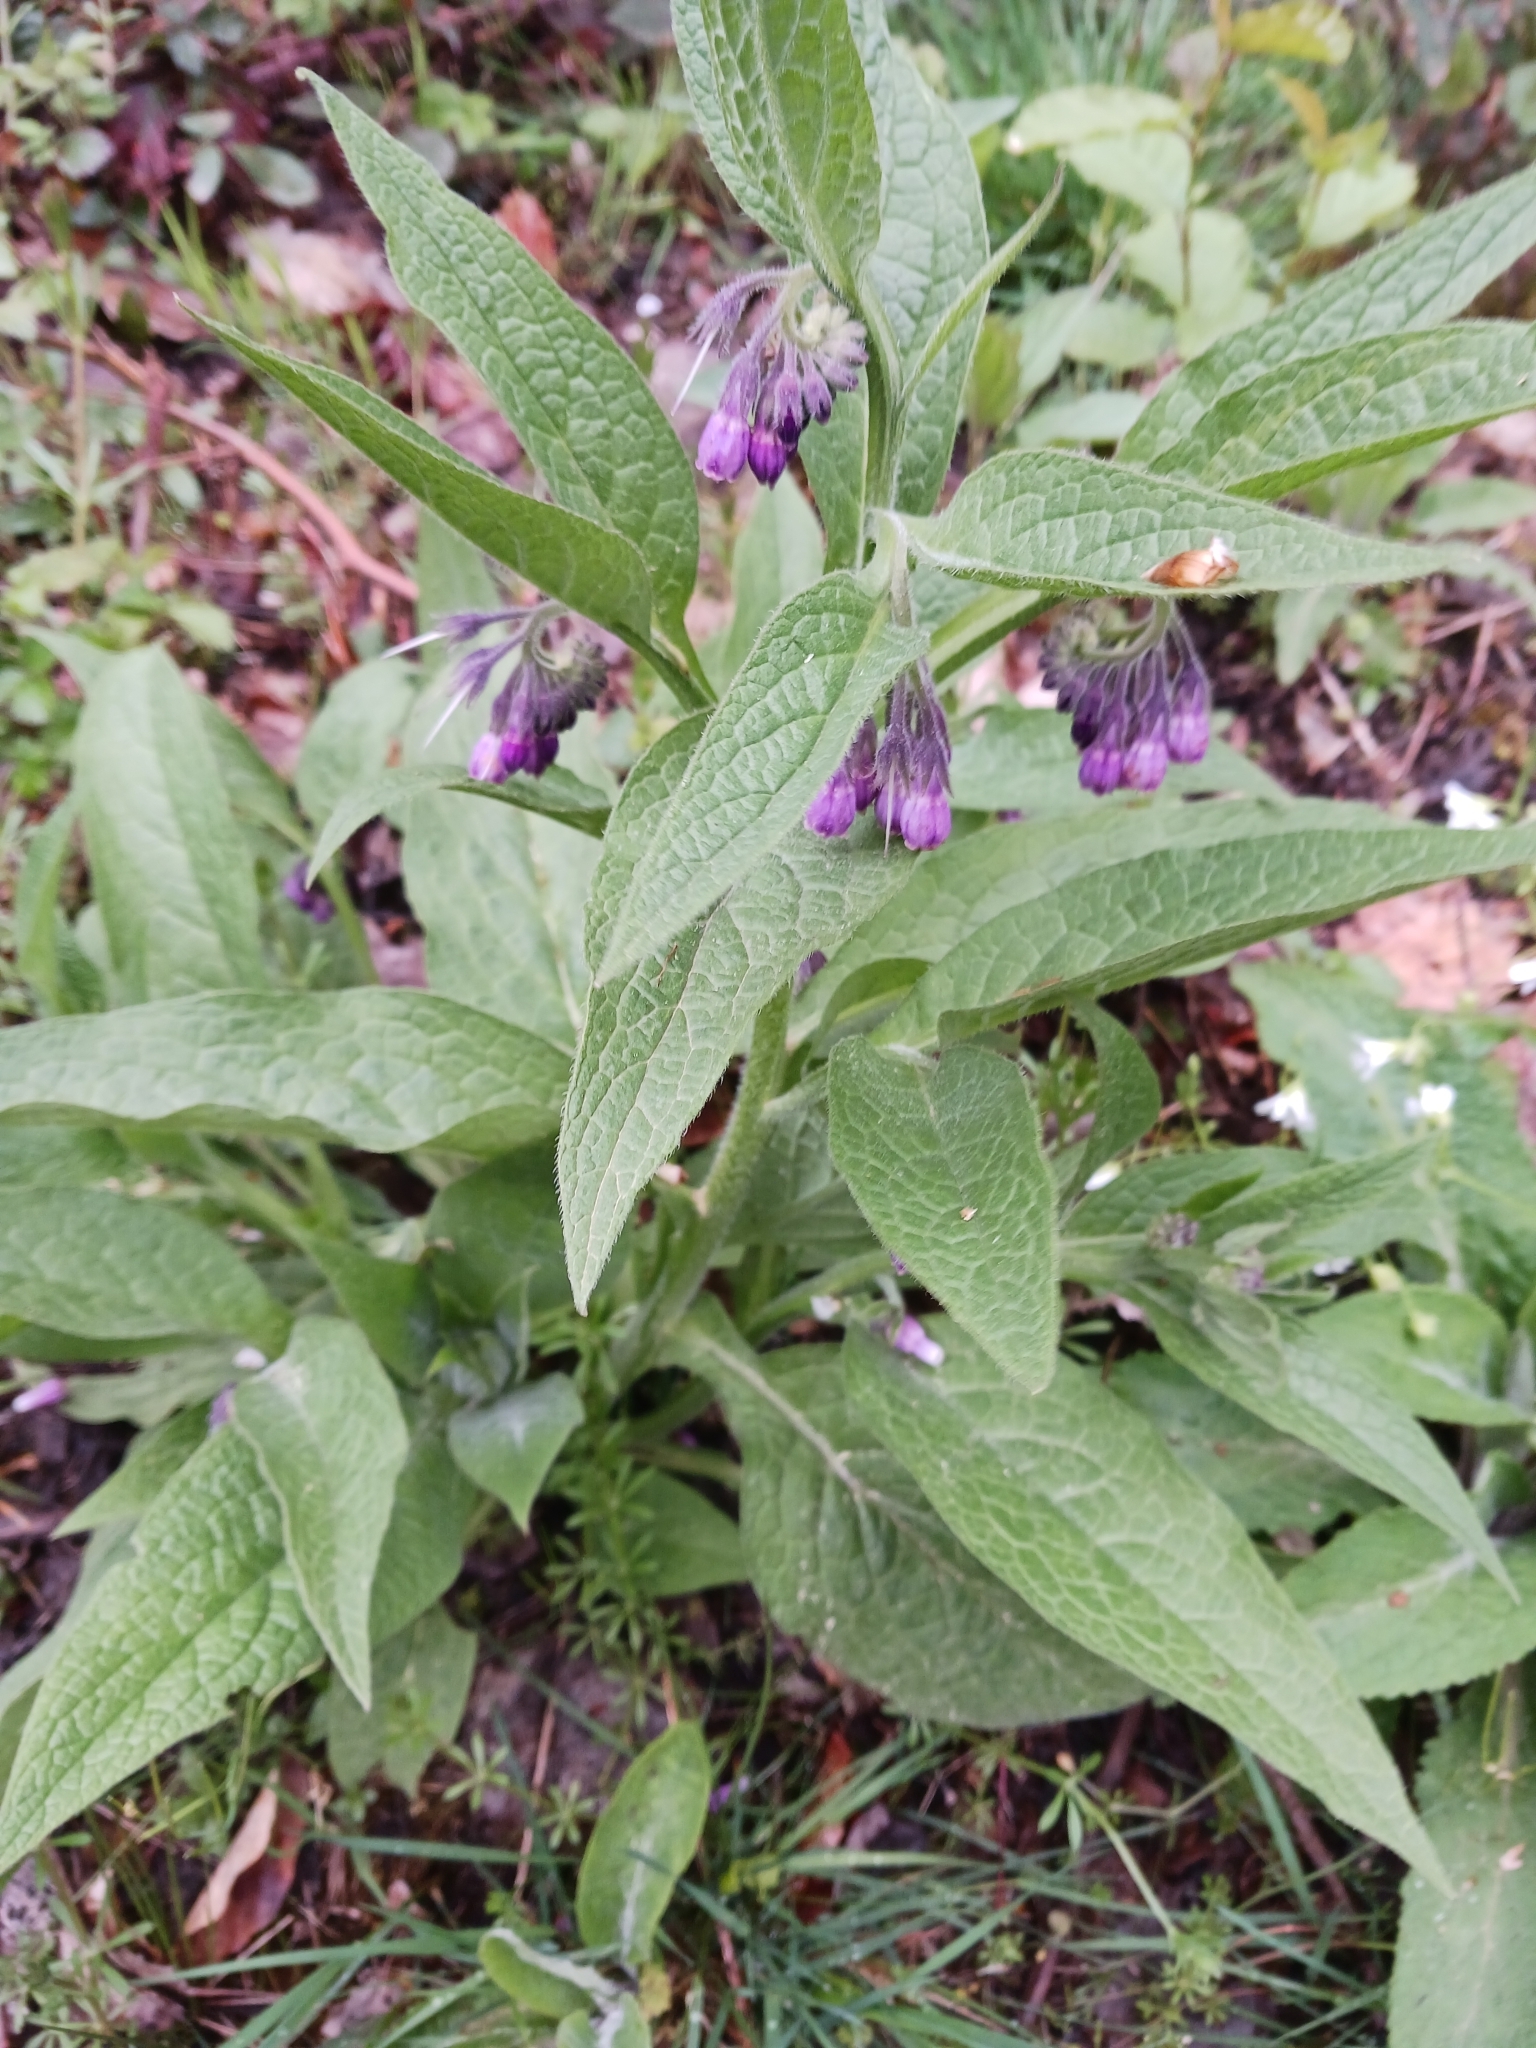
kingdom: Plantae
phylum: Tracheophyta
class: Magnoliopsida
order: Boraginales
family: Boraginaceae
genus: Symphytum
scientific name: Symphytum officinale
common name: Common comfrey
